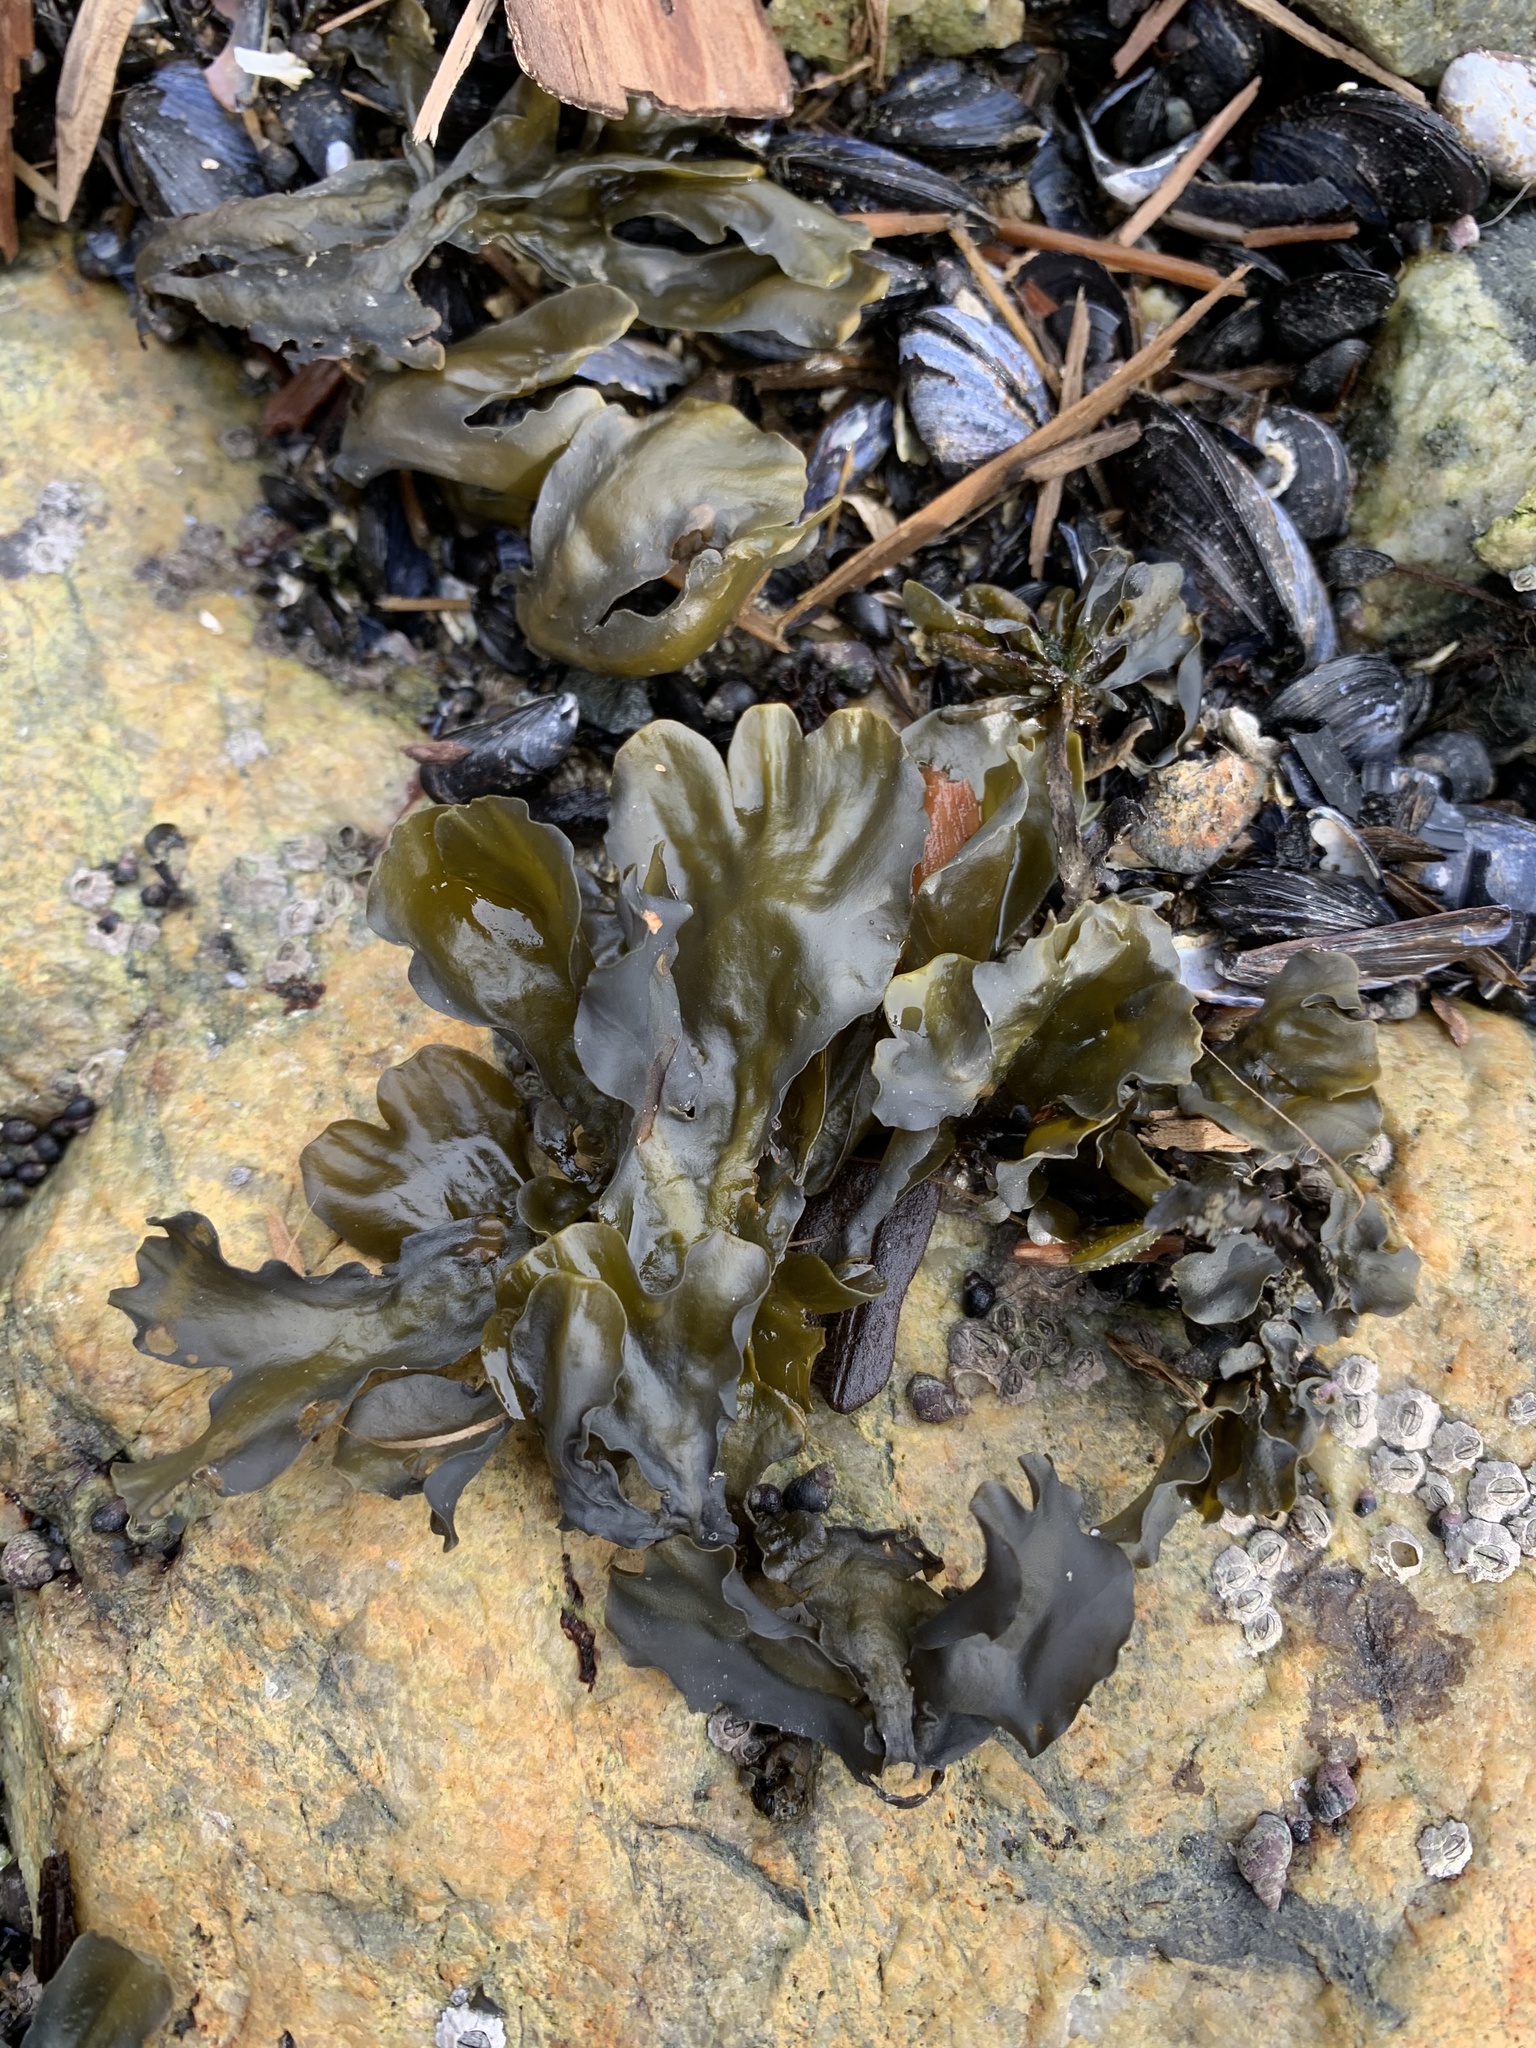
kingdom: Chromista
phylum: Ochrophyta
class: Phaeophyceae
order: Fucales
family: Fucaceae
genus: Fucus
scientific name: Fucus distichus
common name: Rockweed
